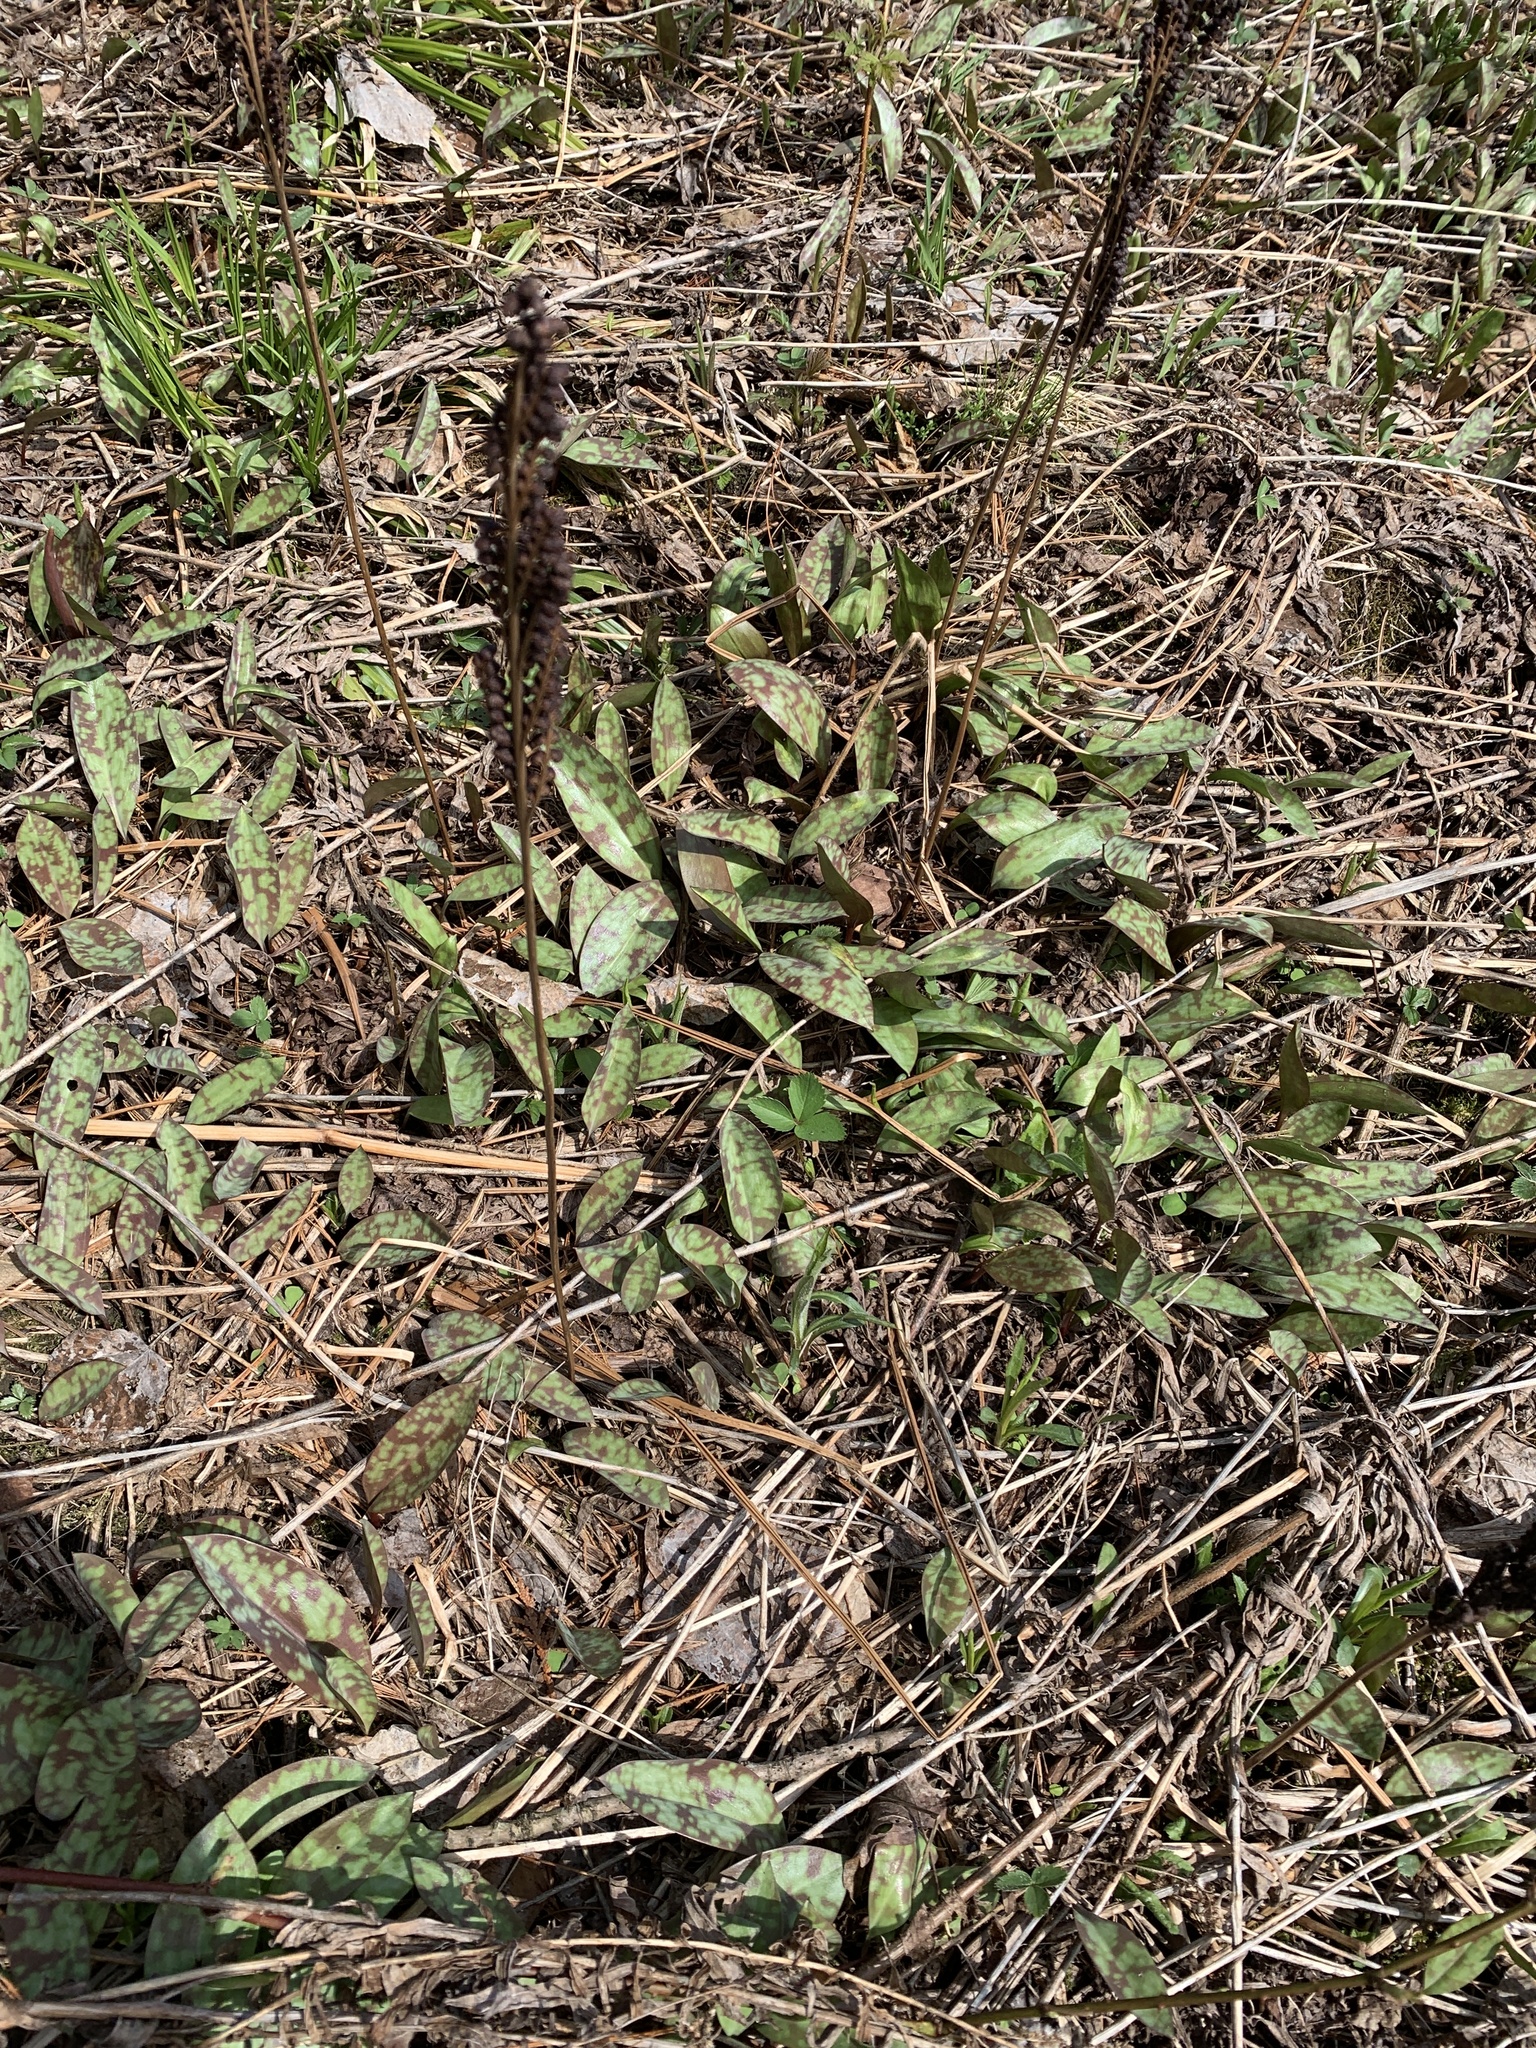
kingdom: Plantae
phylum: Tracheophyta
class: Liliopsida
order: Liliales
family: Liliaceae
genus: Erythronium
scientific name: Erythronium americanum
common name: Yellow adder's-tongue
